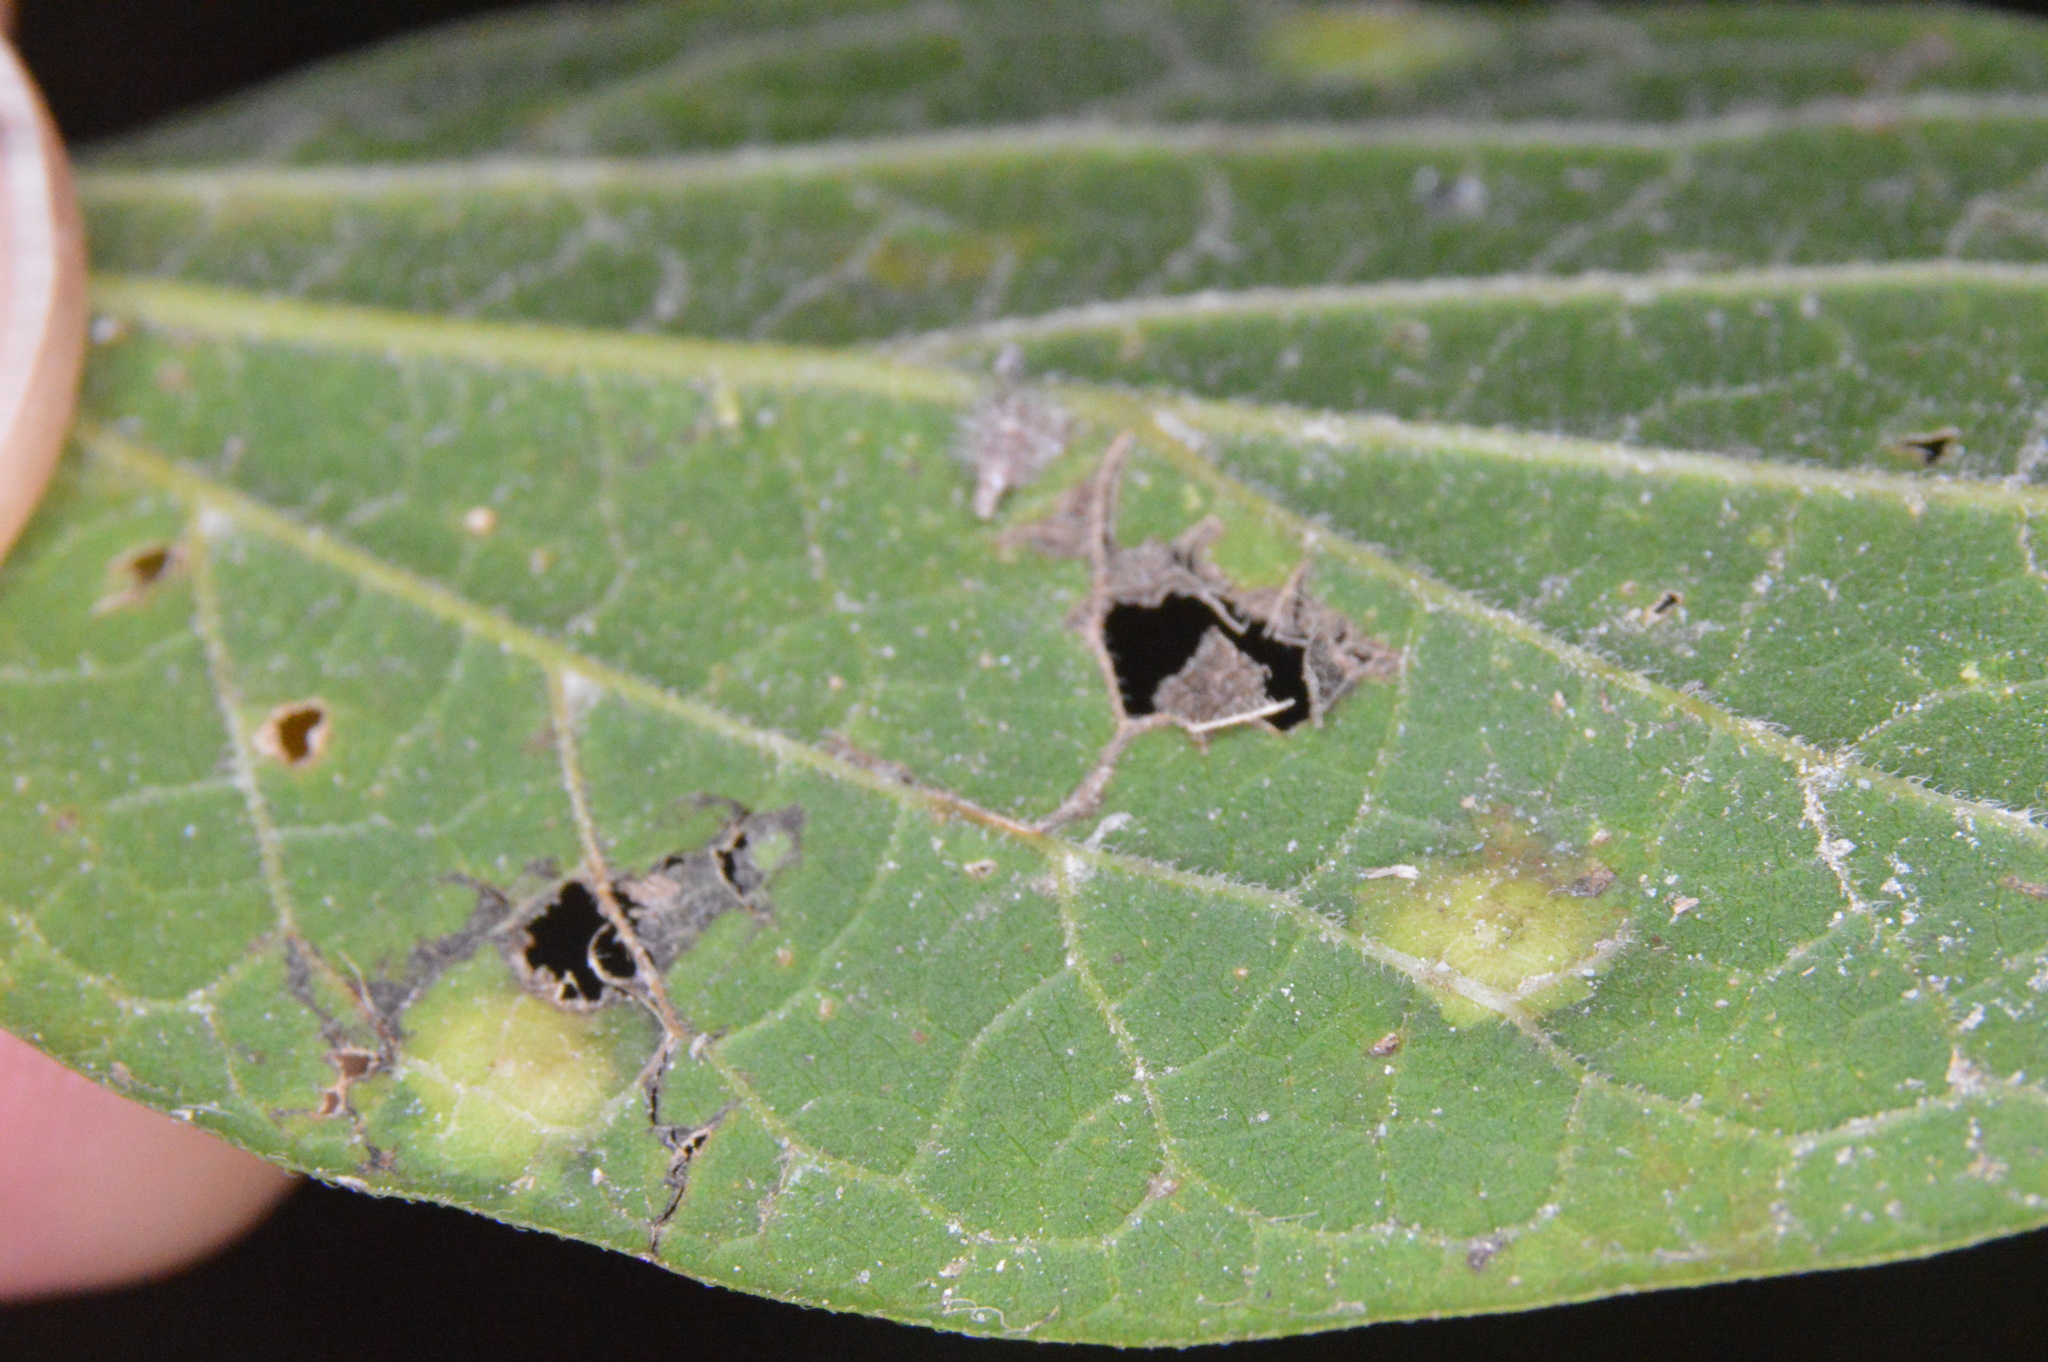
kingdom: Animalia
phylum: Arthropoda
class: Insecta
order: Hemiptera
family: Aphalaridae
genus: Pachypsylla
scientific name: Pachypsylla celtidisvesicula
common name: Hackberry blister gall psyllid
